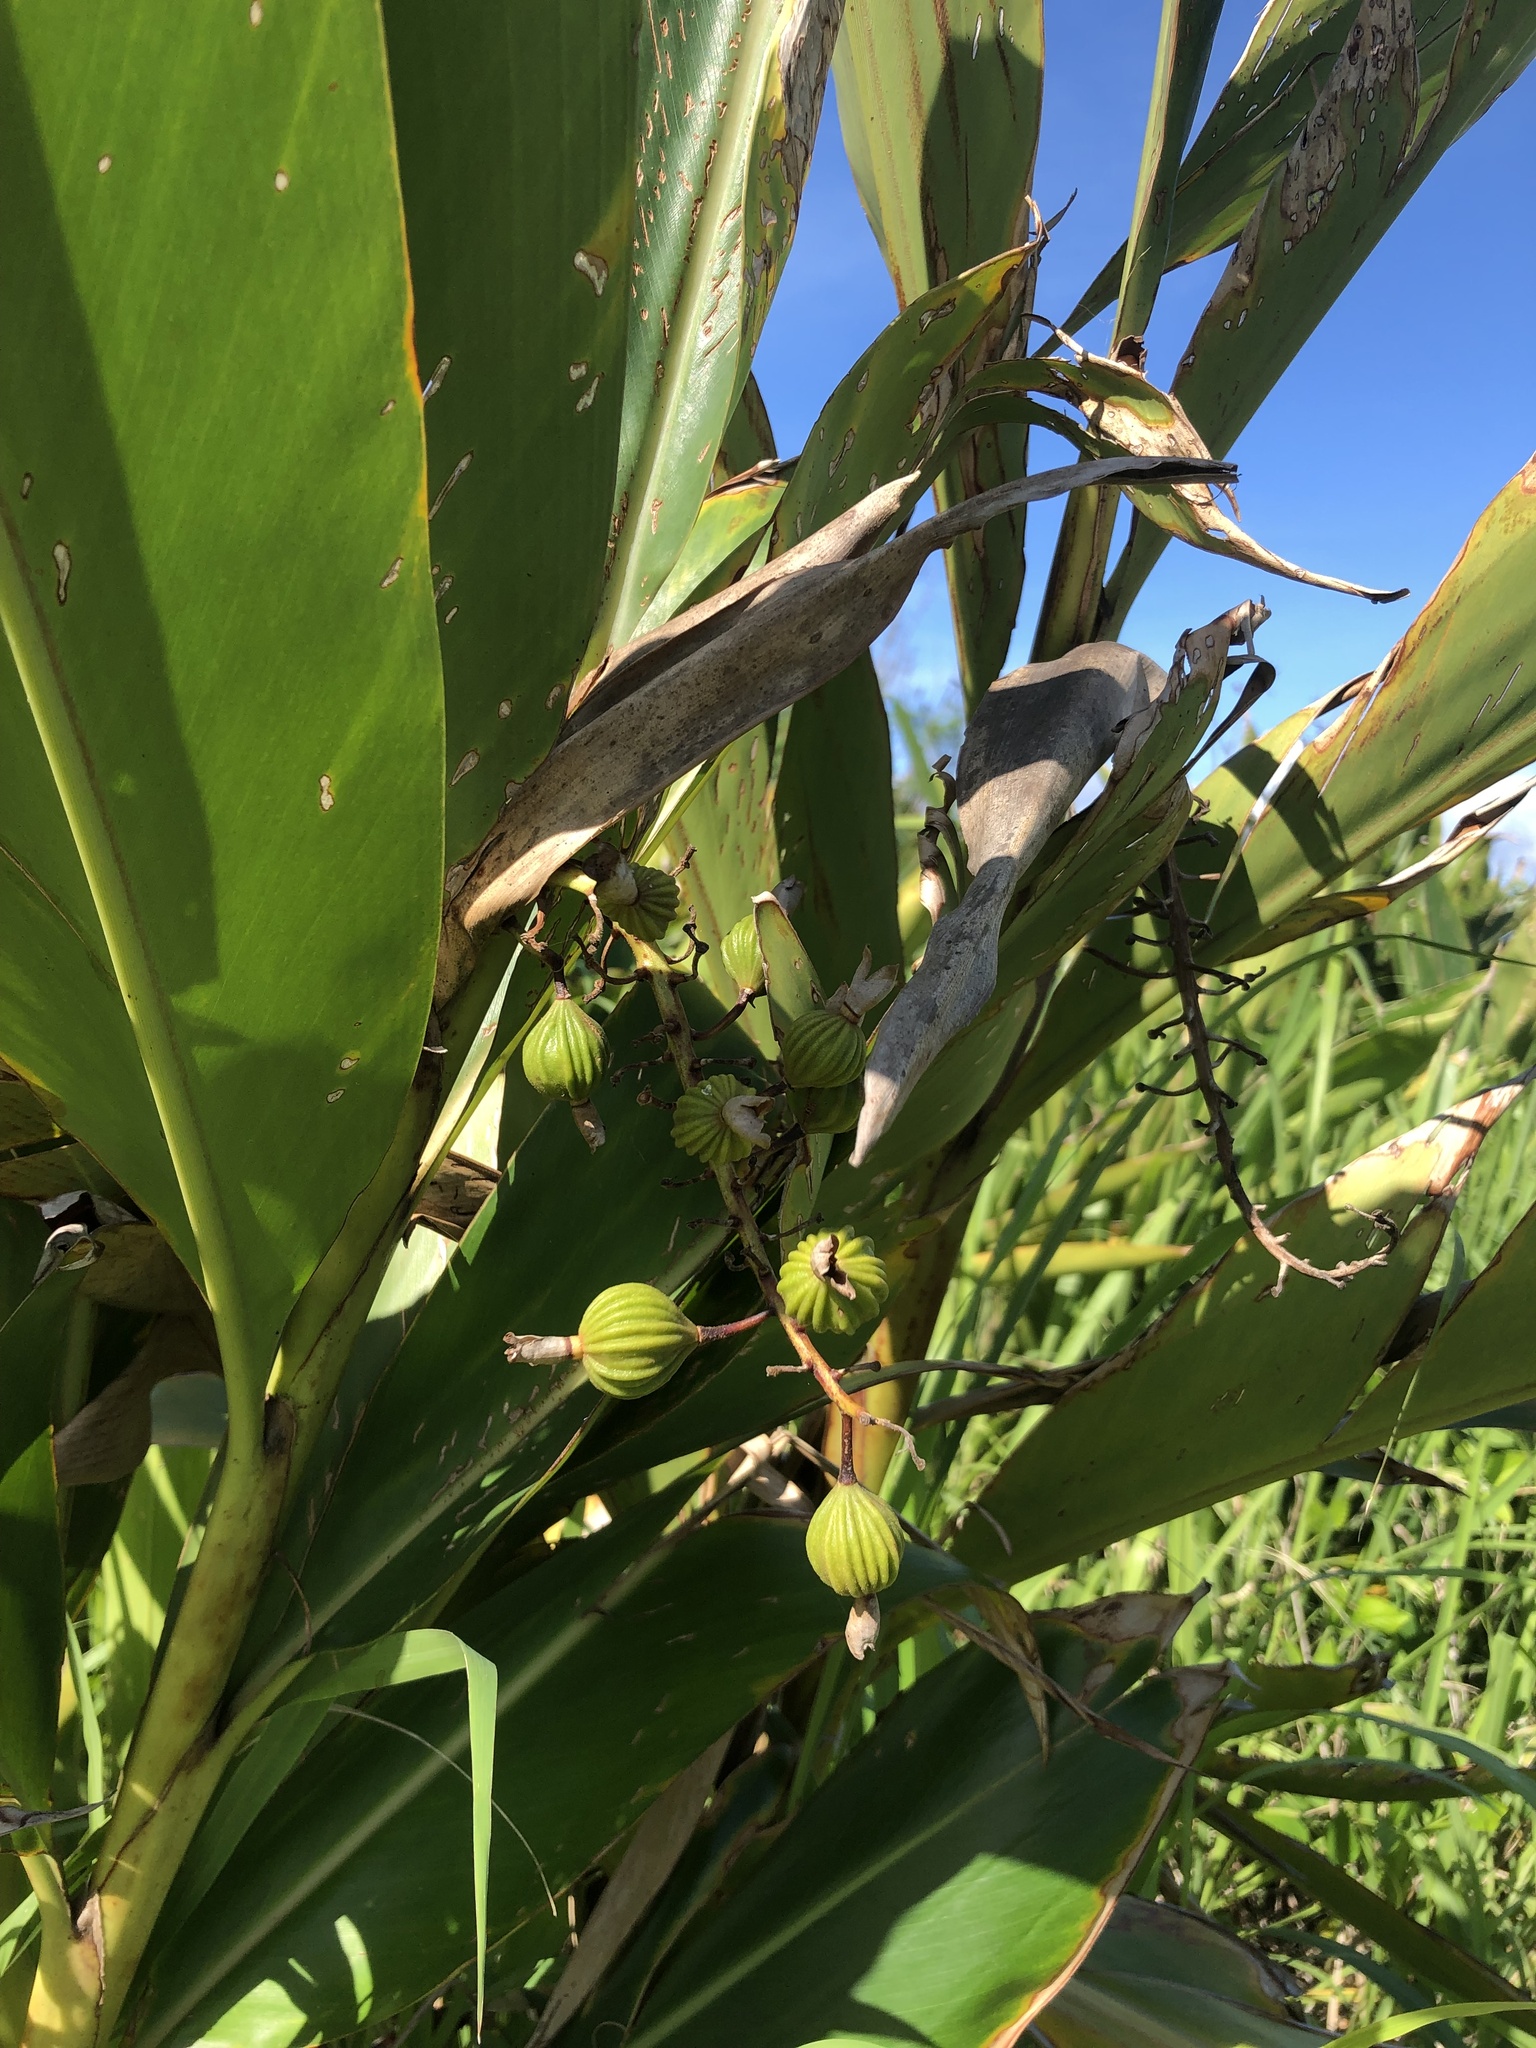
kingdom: Plantae
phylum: Tracheophyta
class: Liliopsida
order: Zingiberales
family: Zingiberaceae
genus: Alpinia
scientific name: Alpinia zerumbet
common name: Shellplant
